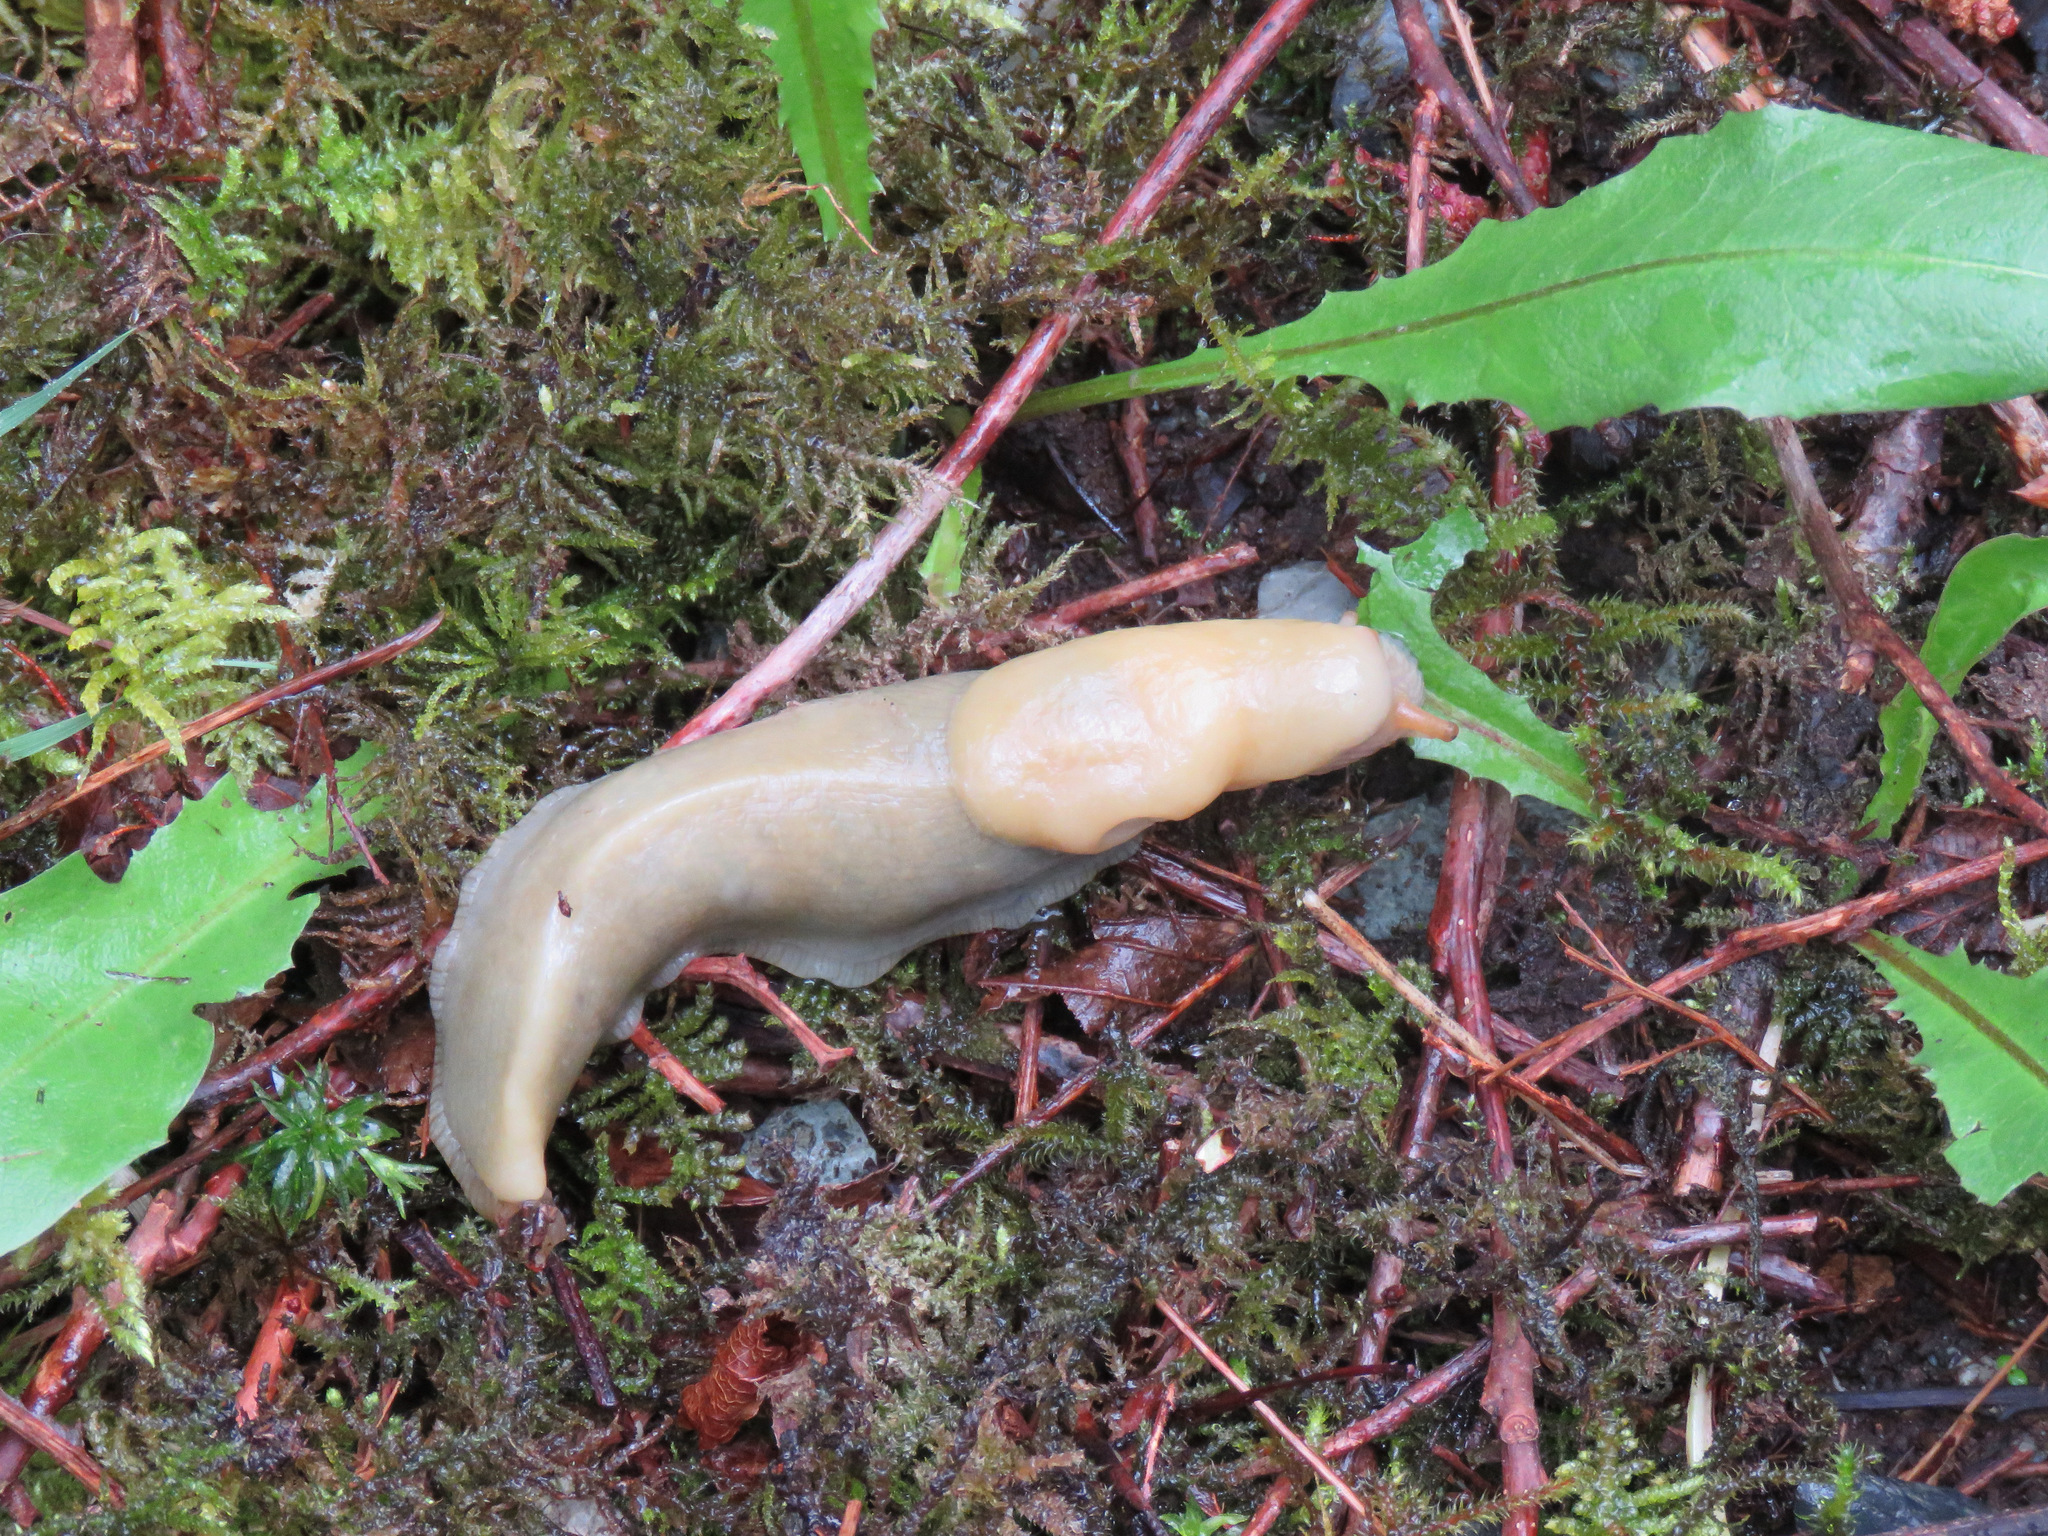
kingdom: Animalia
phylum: Mollusca
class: Gastropoda
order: Stylommatophora
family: Ariolimacidae
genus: Ariolimax
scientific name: Ariolimax columbianus
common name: Pacific banana slug
